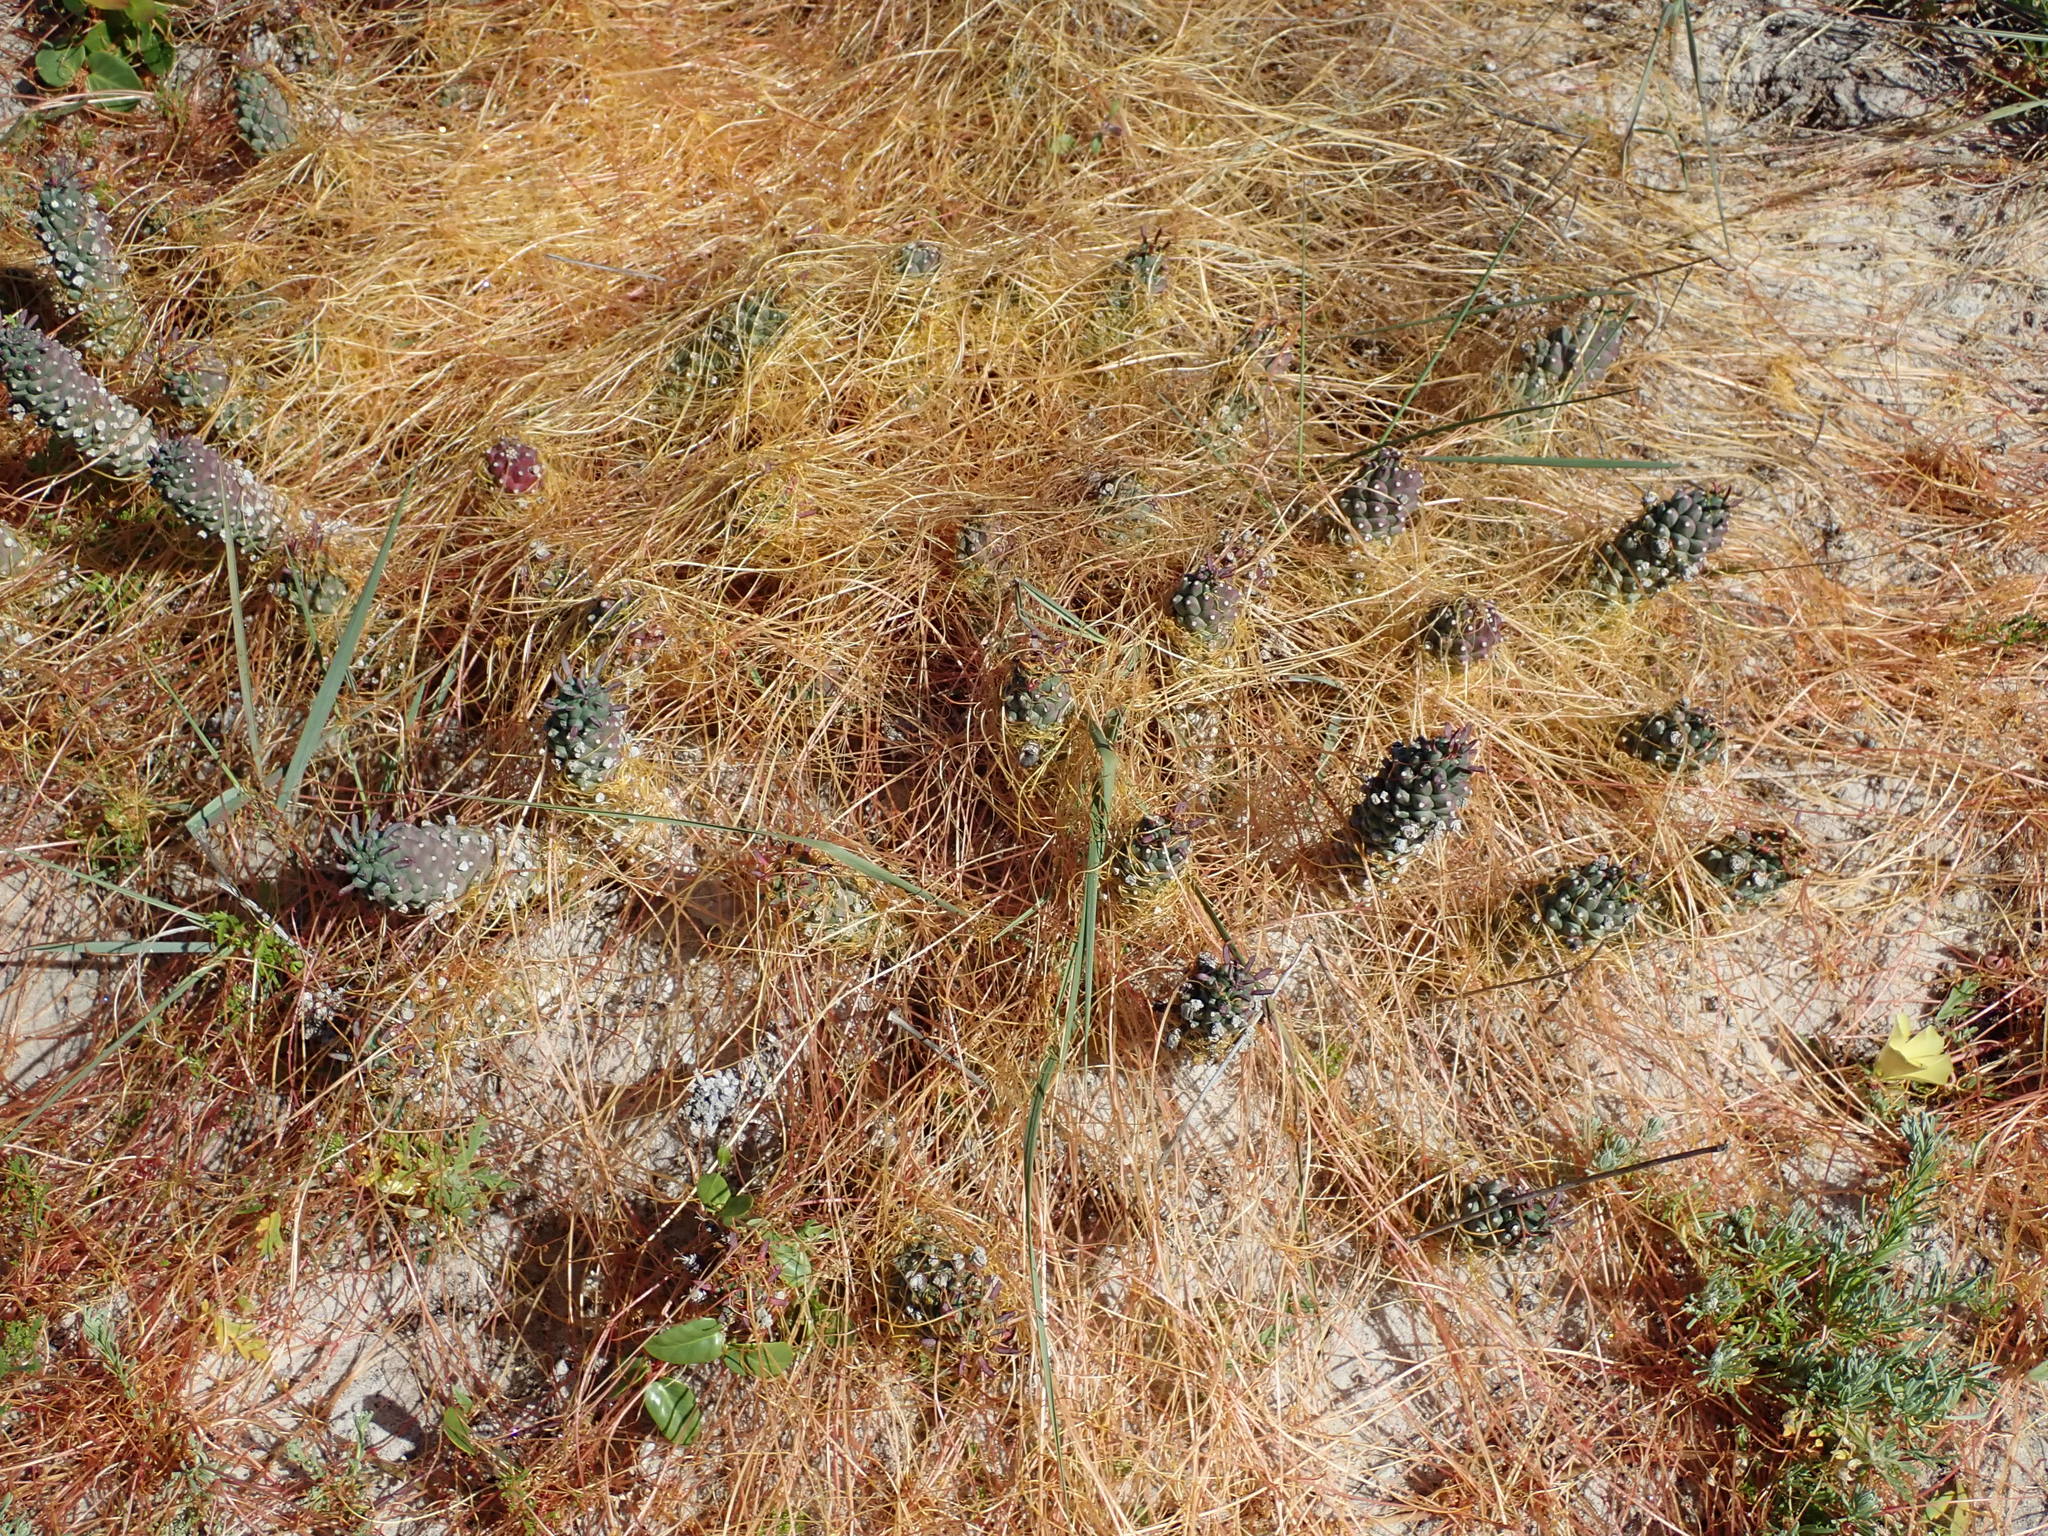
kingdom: Plantae
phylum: Tracheophyta
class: Magnoliopsida
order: Malpighiales
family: Euphorbiaceae
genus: Euphorbia
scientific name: Euphorbia caput-medusae
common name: Medusa's-head
